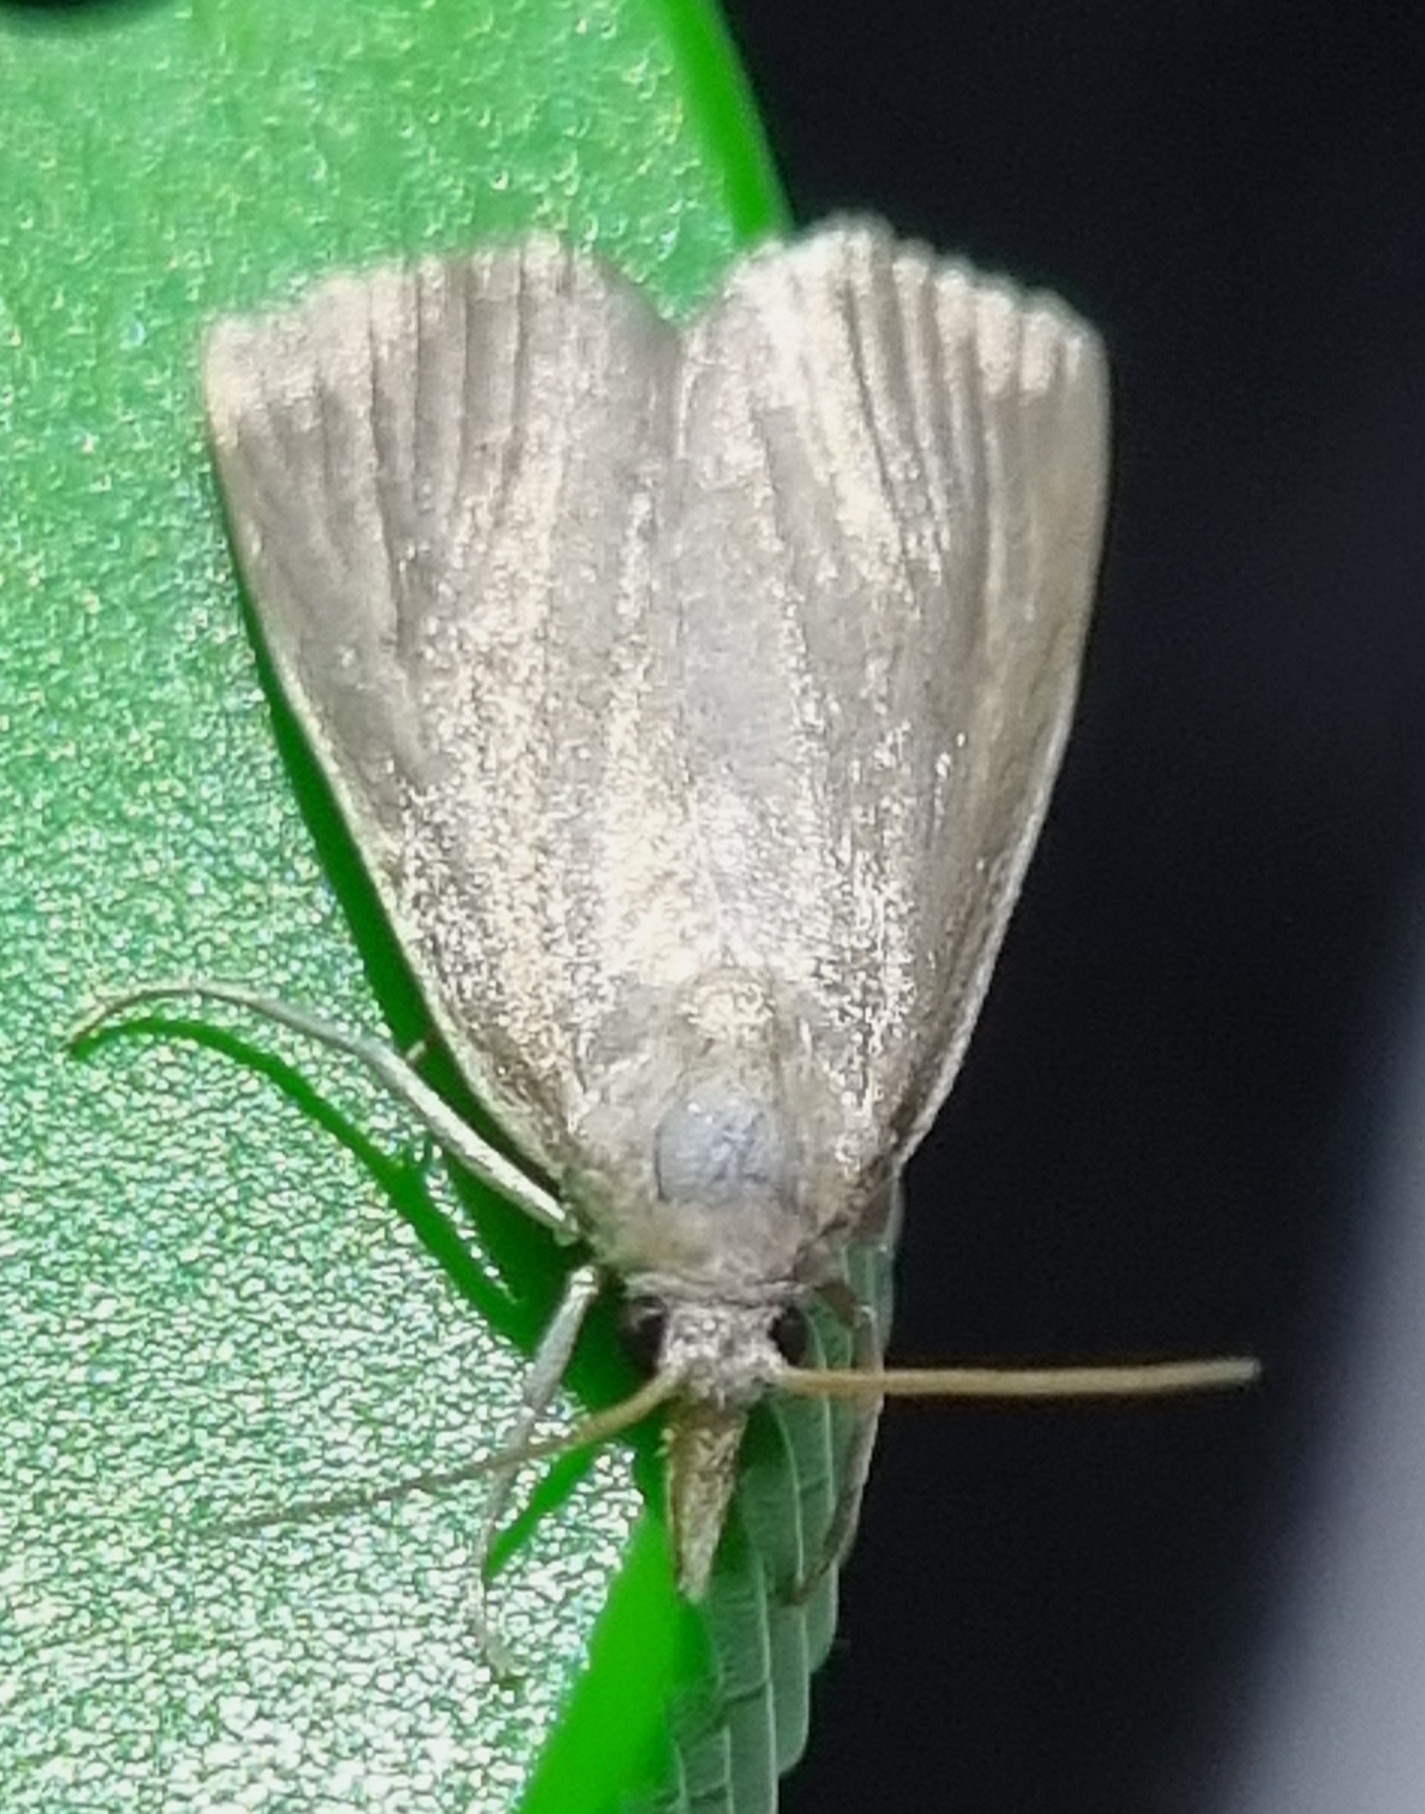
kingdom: Animalia
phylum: Arthropoda
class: Insecta
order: Lepidoptera
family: Crambidae
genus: Calamotropha
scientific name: Calamotropha paludella
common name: Bulrush veneer
